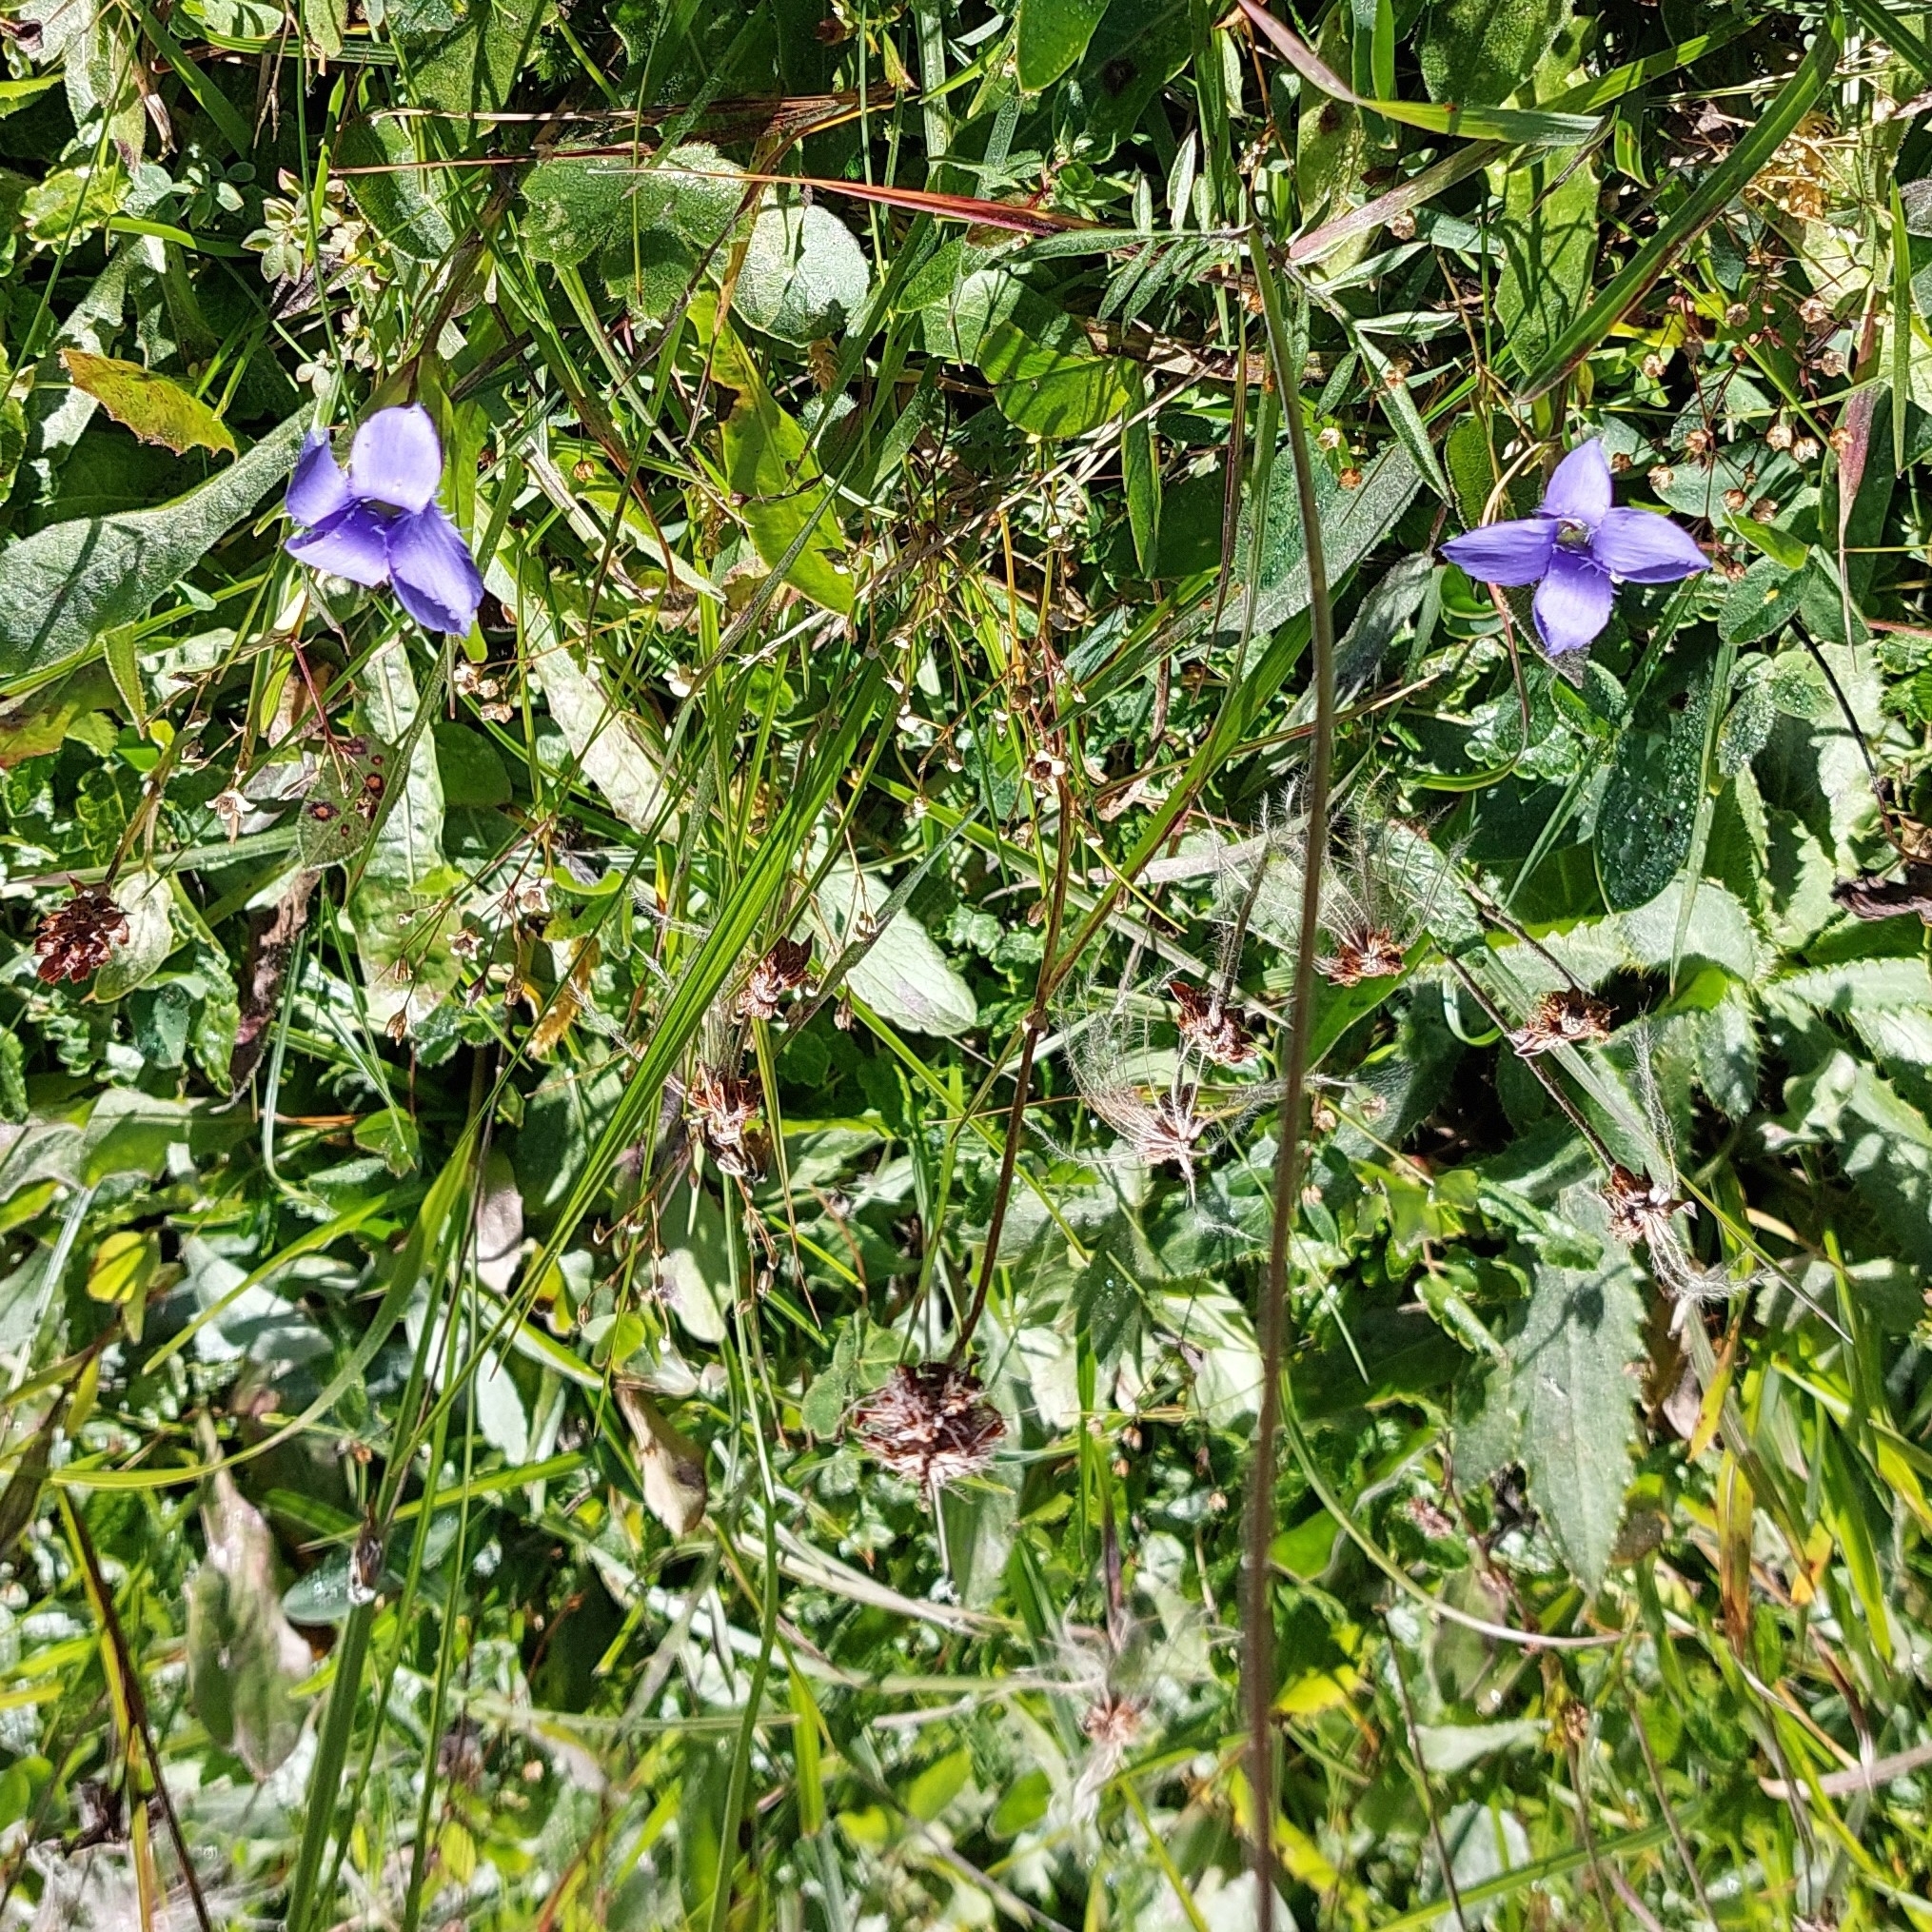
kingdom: Plantae
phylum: Tracheophyta
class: Magnoliopsida
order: Gentianales
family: Gentianaceae
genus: Gentianopsis
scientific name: Gentianopsis ciliata
